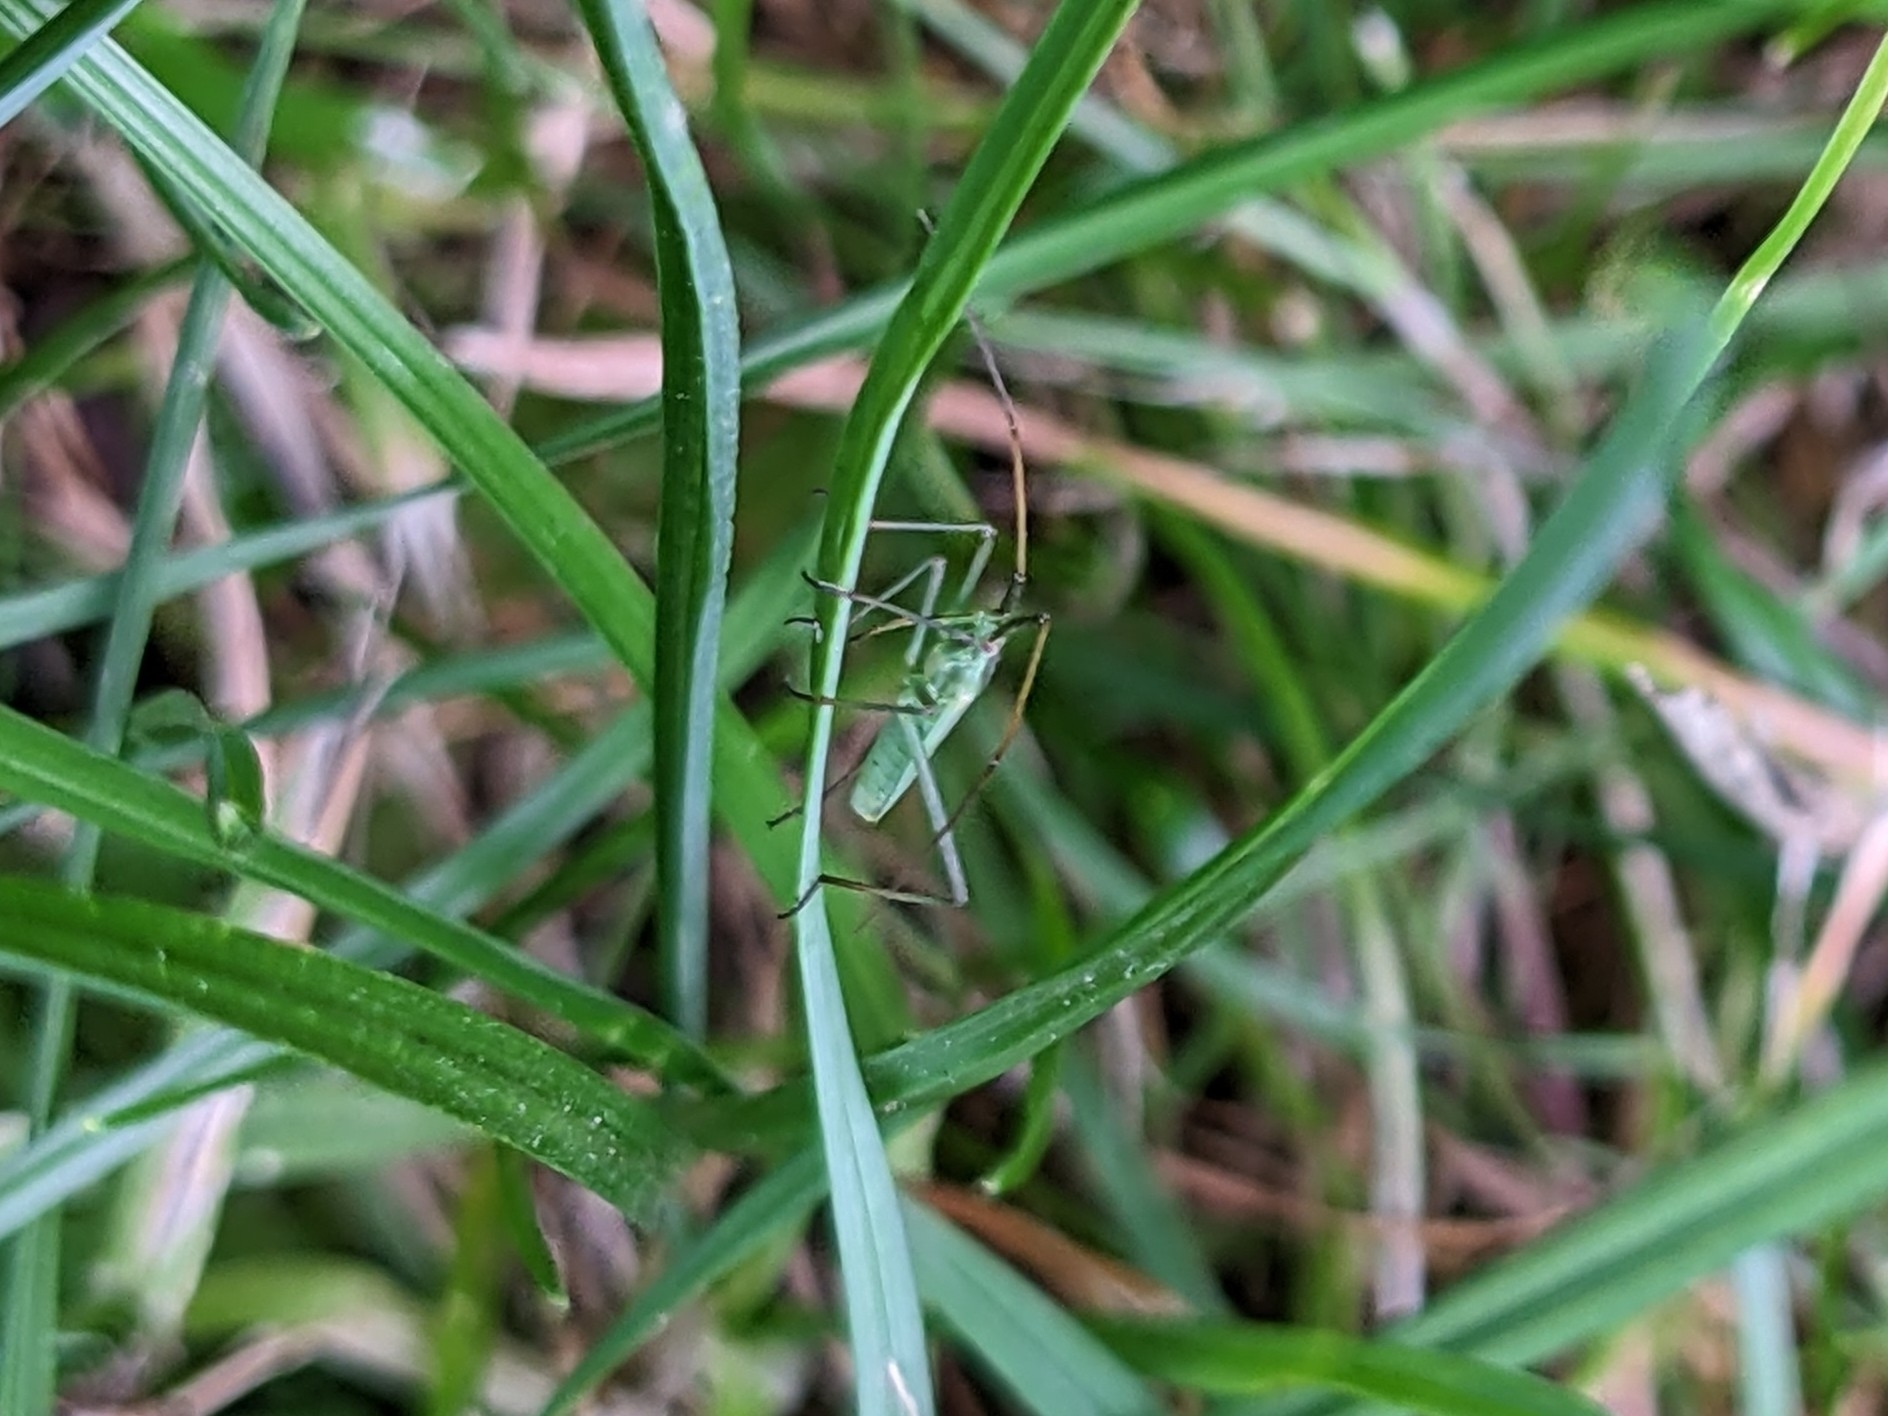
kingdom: Animalia
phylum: Arthropoda
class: Insecta
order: Hemiptera
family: Miridae
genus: Megaloceroea
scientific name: Megaloceroea recticornis
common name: Plant bug
